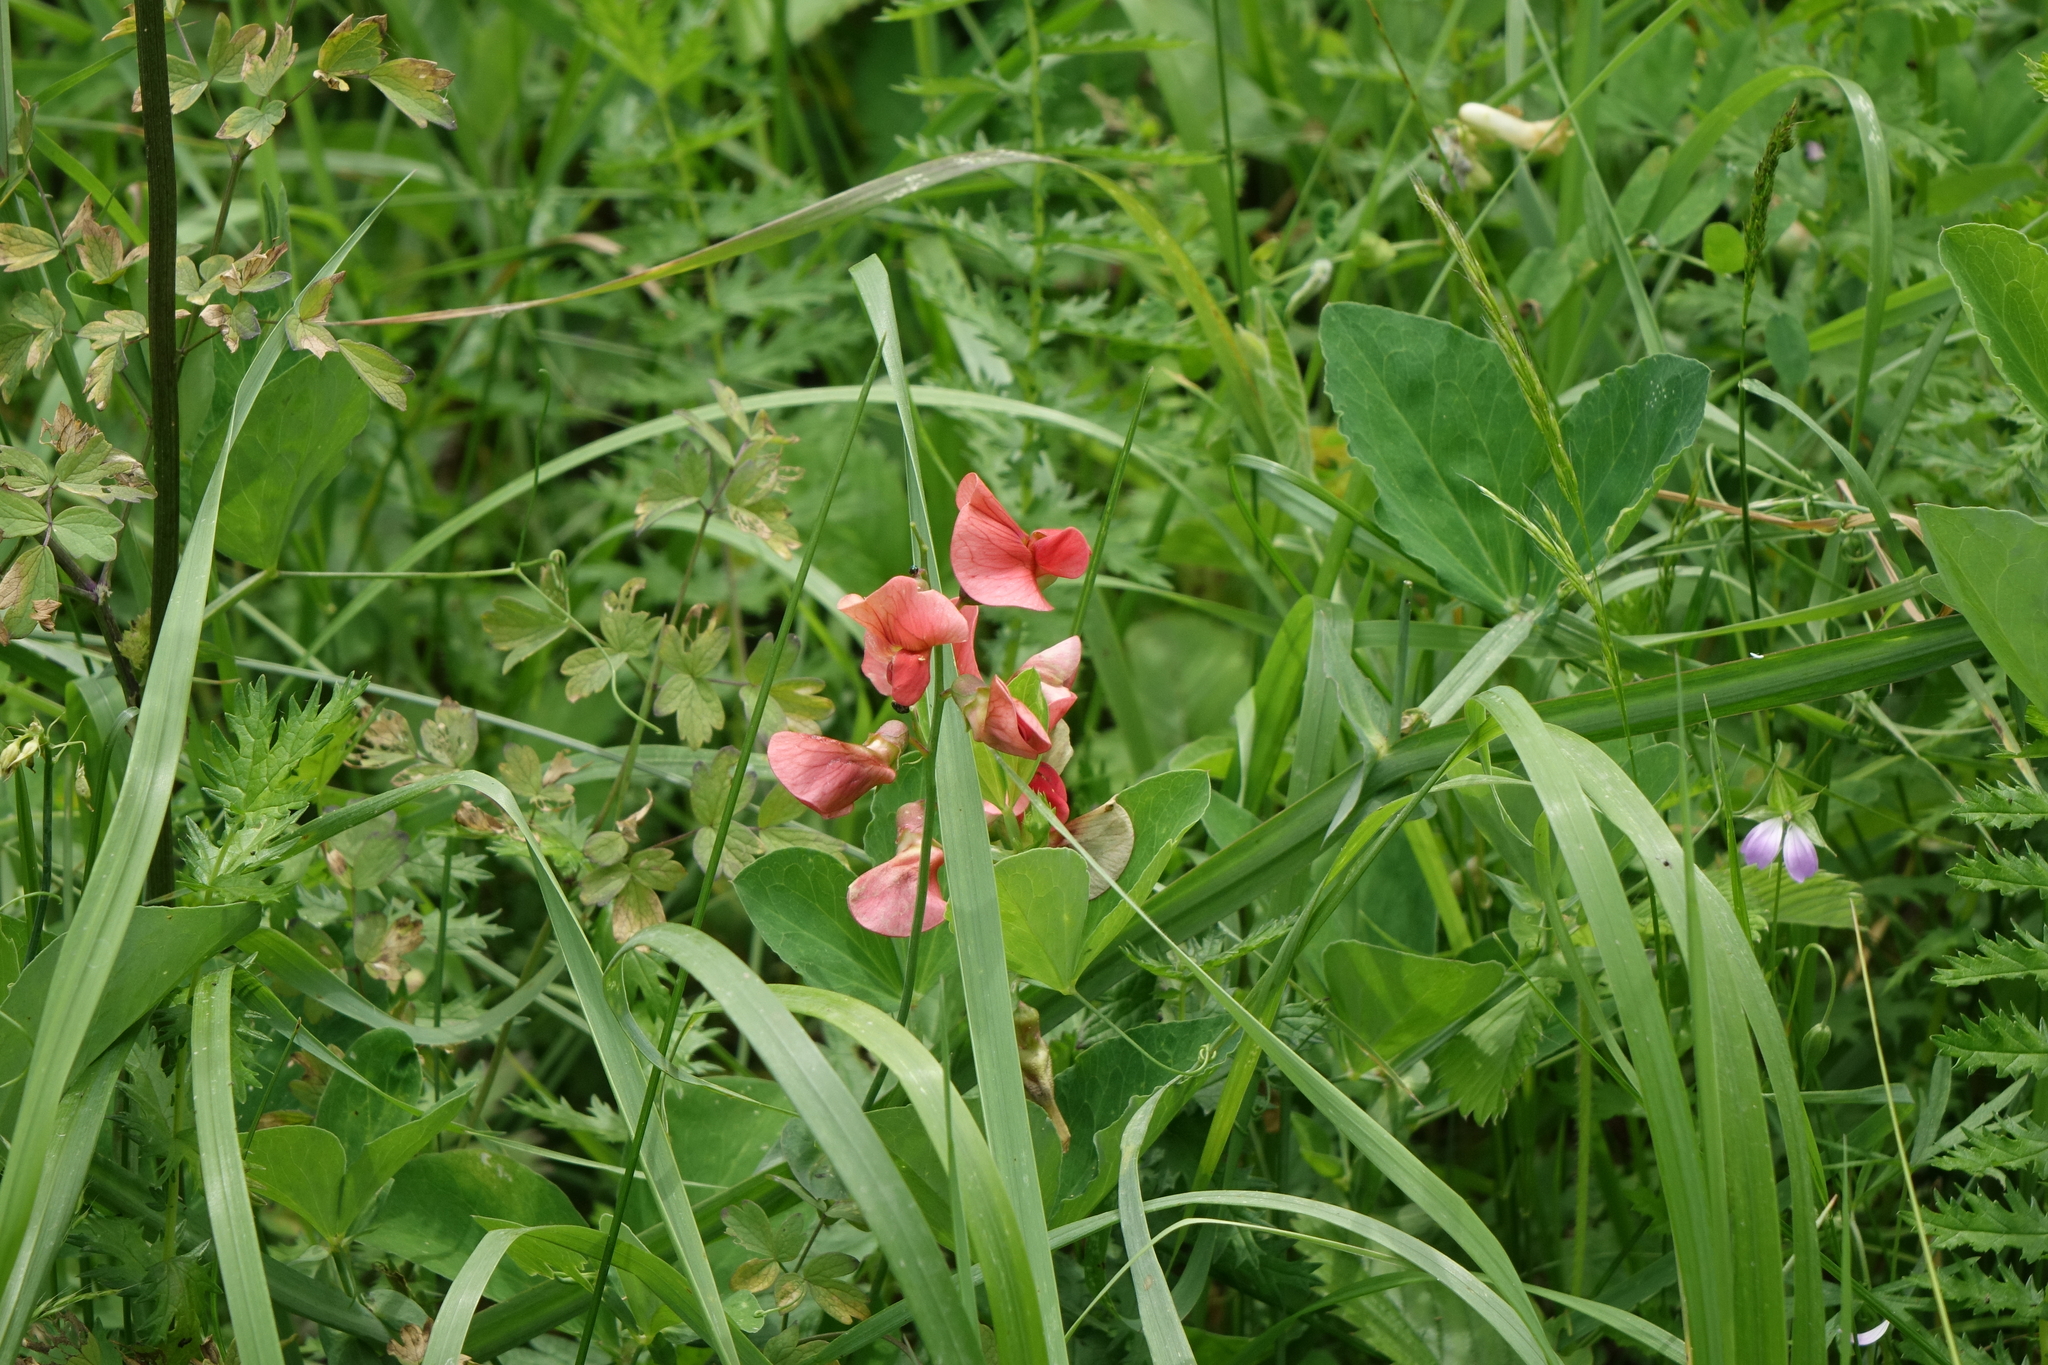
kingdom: Plantae
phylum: Tracheophyta
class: Magnoliopsida
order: Fabales
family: Fabaceae
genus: Lathyrus
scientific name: Lathyrus miniatus
